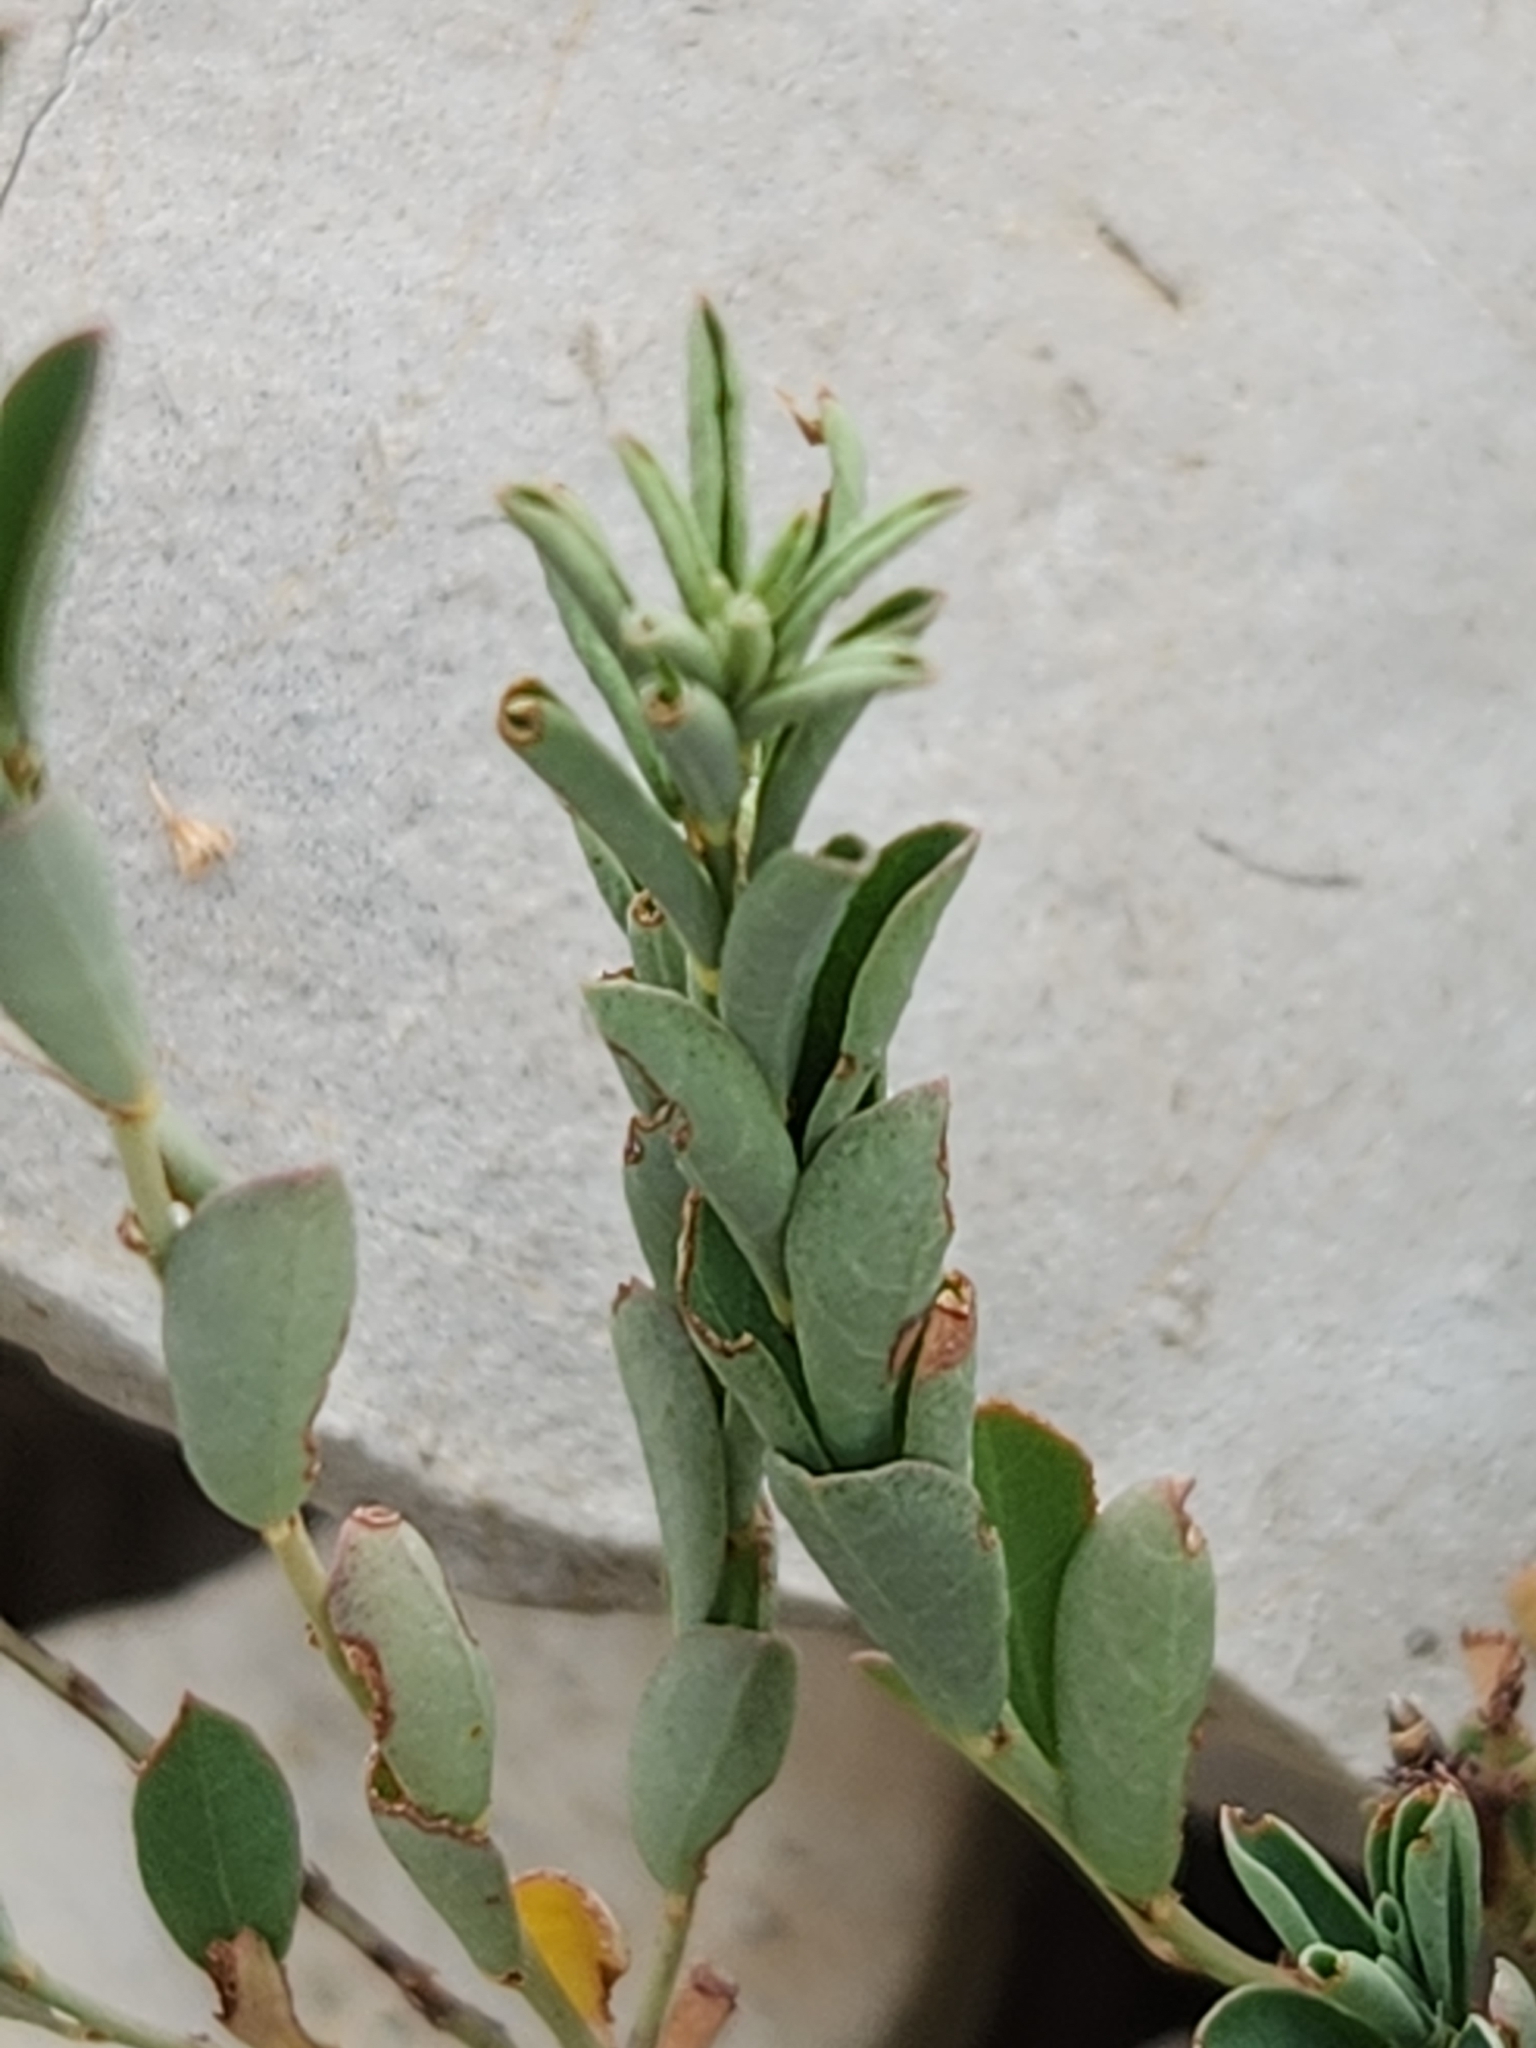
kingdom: Plantae
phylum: Tracheophyta
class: Magnoliopsida
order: Malpighiales
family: Phyllanthaceae
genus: Phyllanthus
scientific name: Phyllanthus polygonoides
